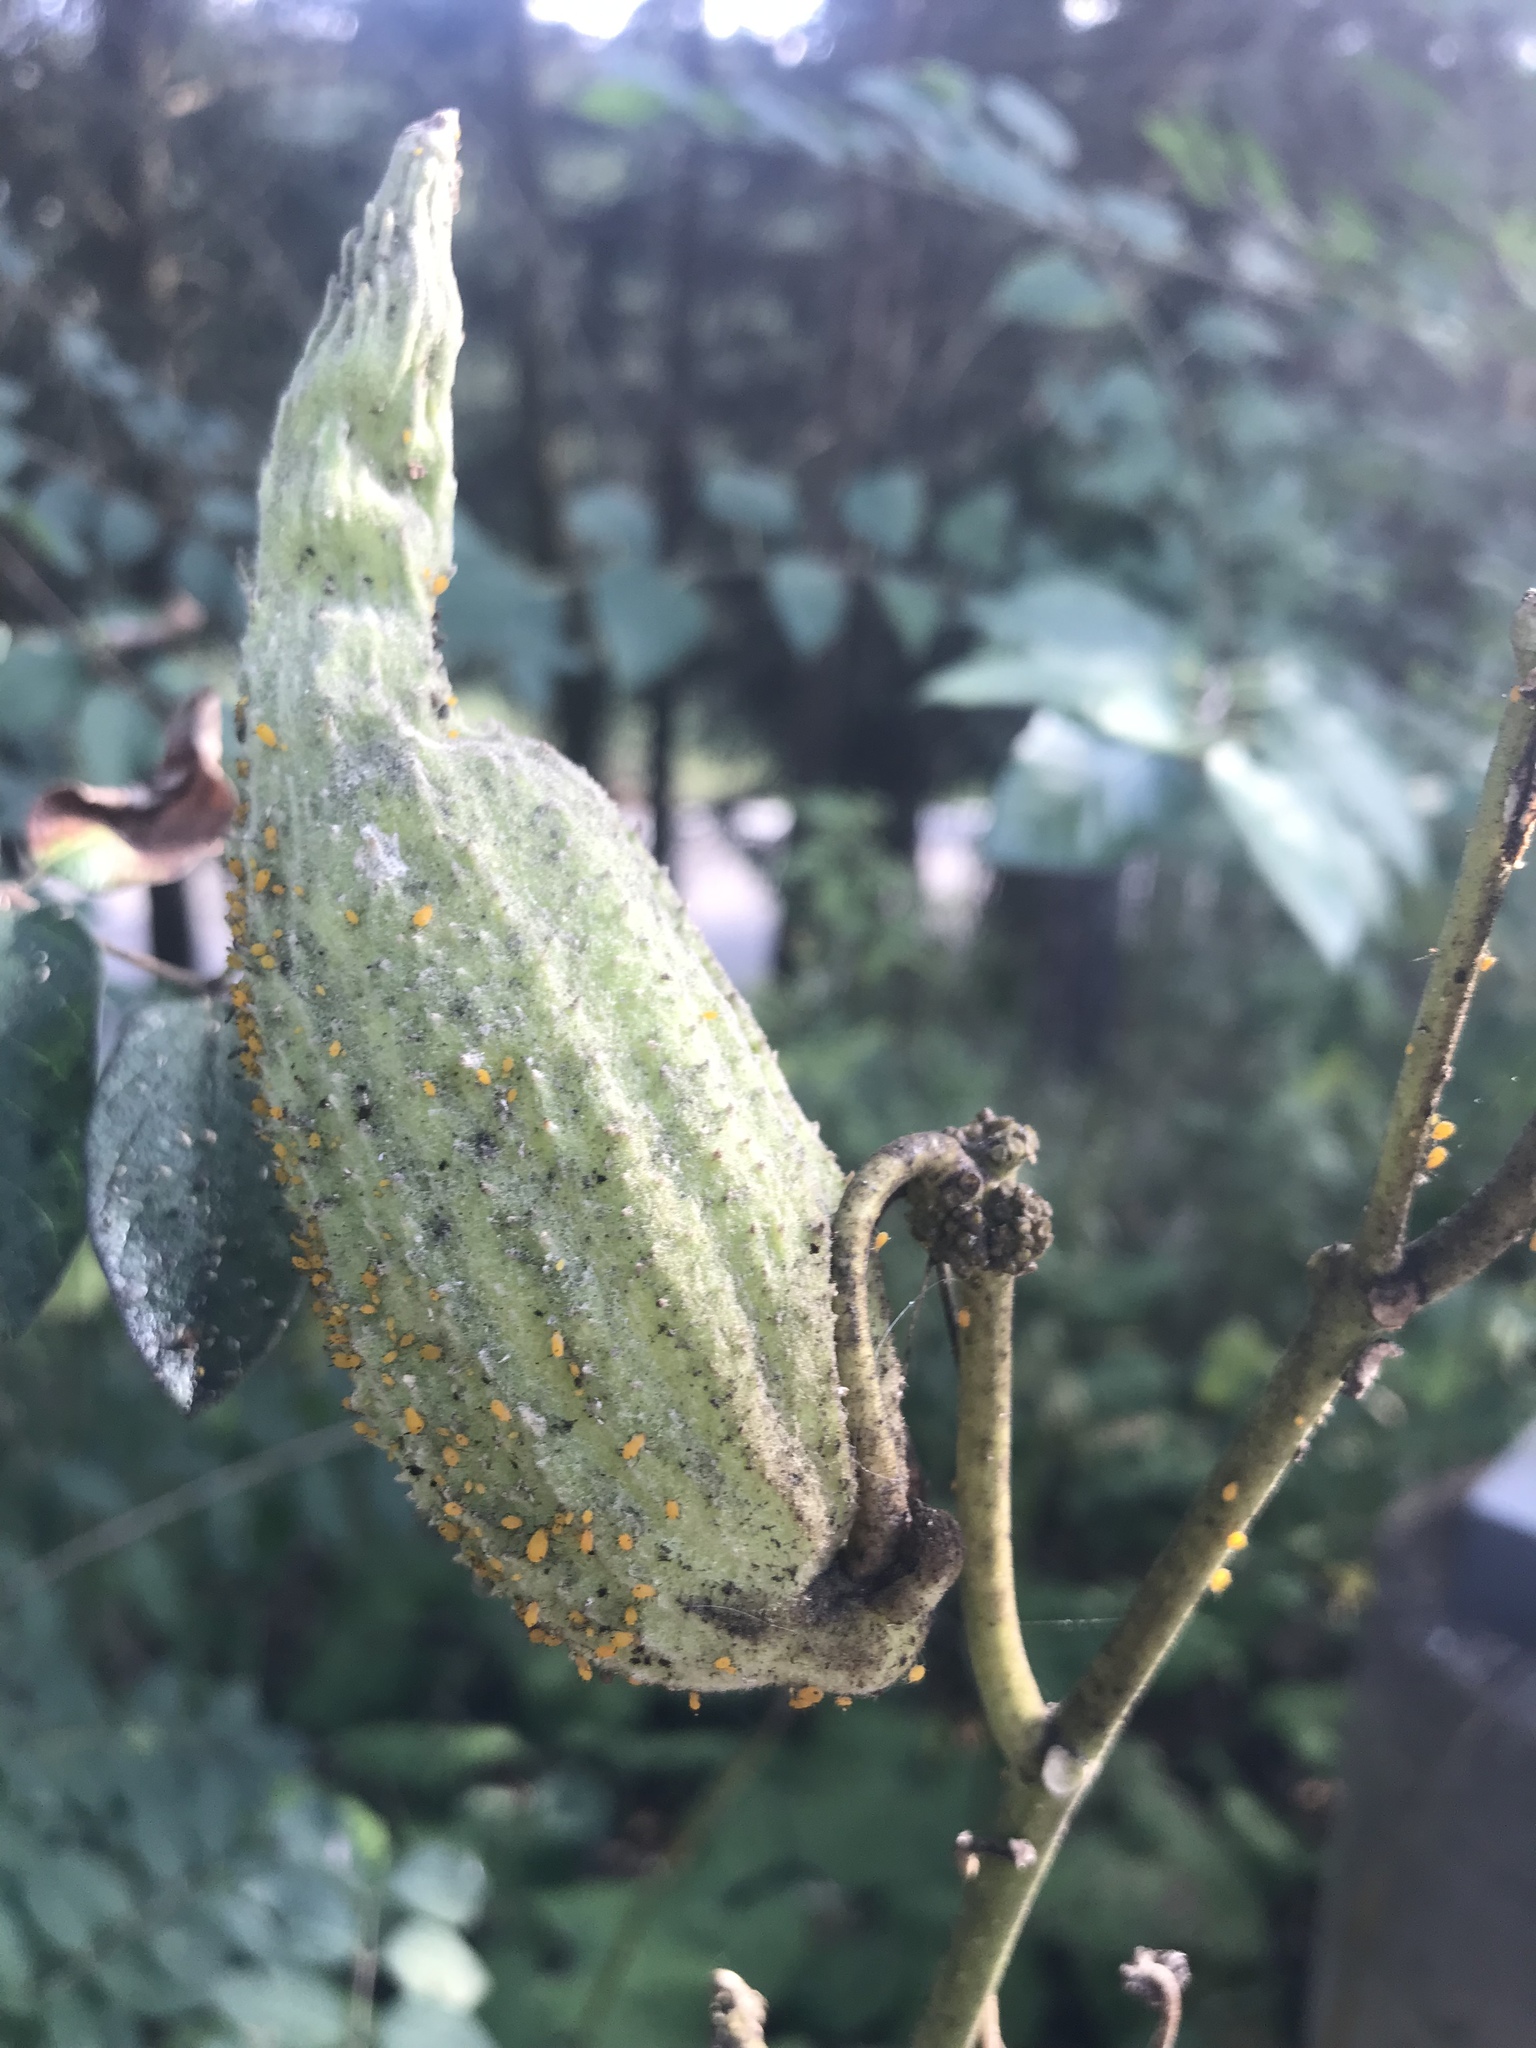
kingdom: Animalia
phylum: Arthropoda
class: Insecta
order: Hemiptera
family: Aphididae
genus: Aphis
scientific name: Aphis nerii
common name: Oleander aphid
